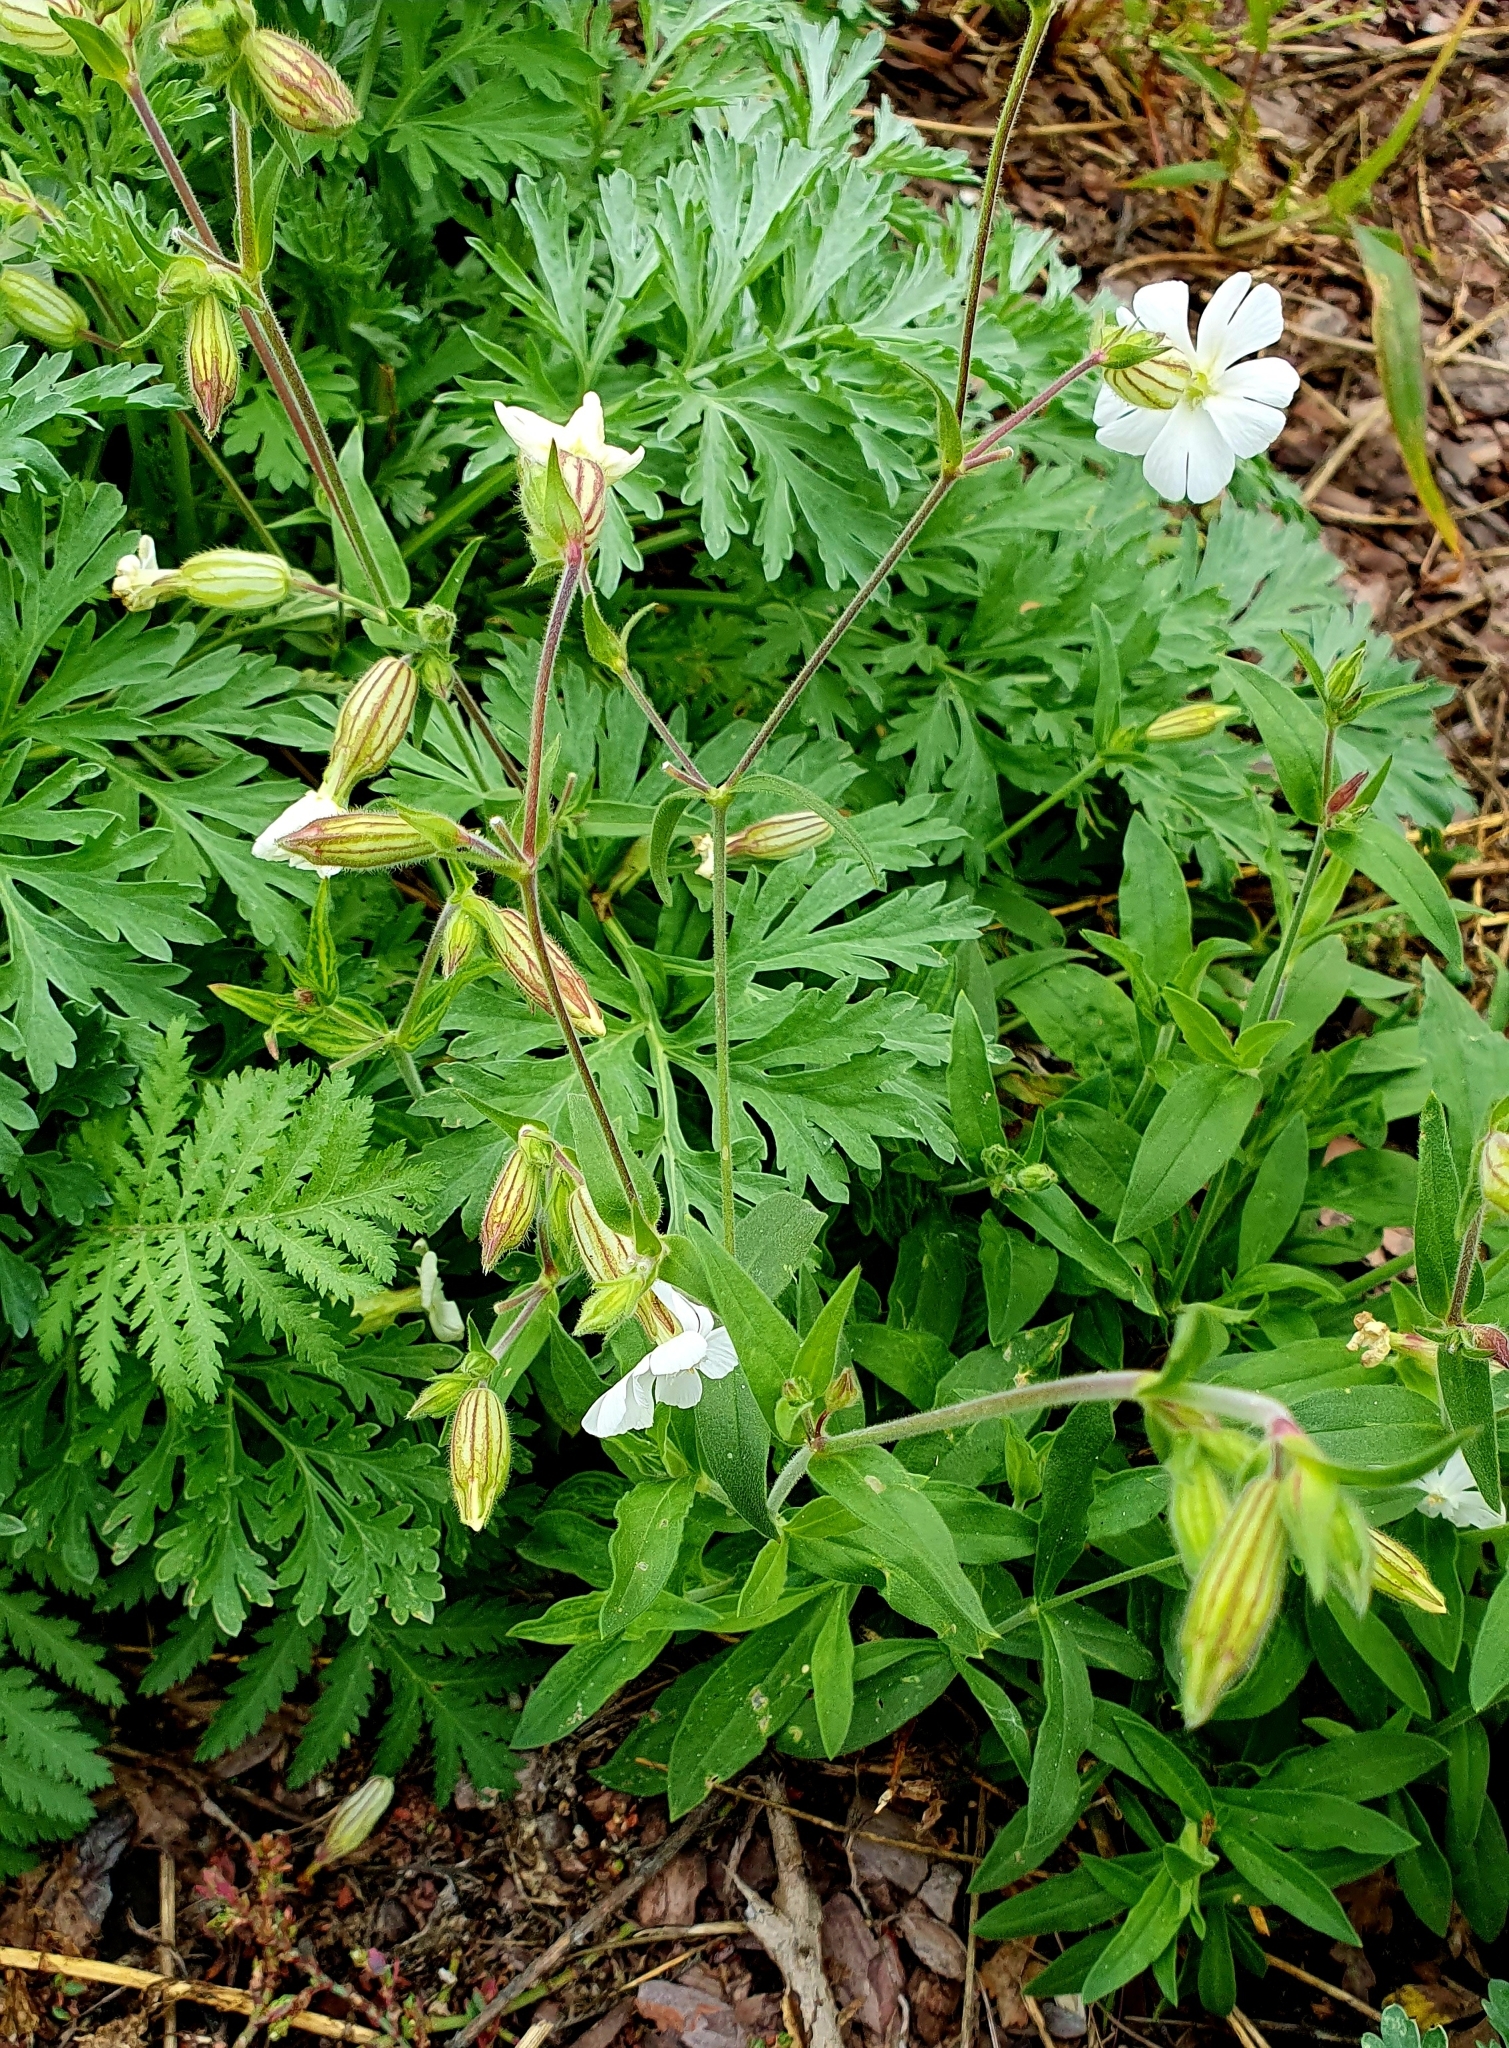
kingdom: Plantae
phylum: Tracheophyta
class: Magnoliopsida
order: Caryophyllales
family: Caryophyllaceae
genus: Silene
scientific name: Silene latifolia
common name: White campion
